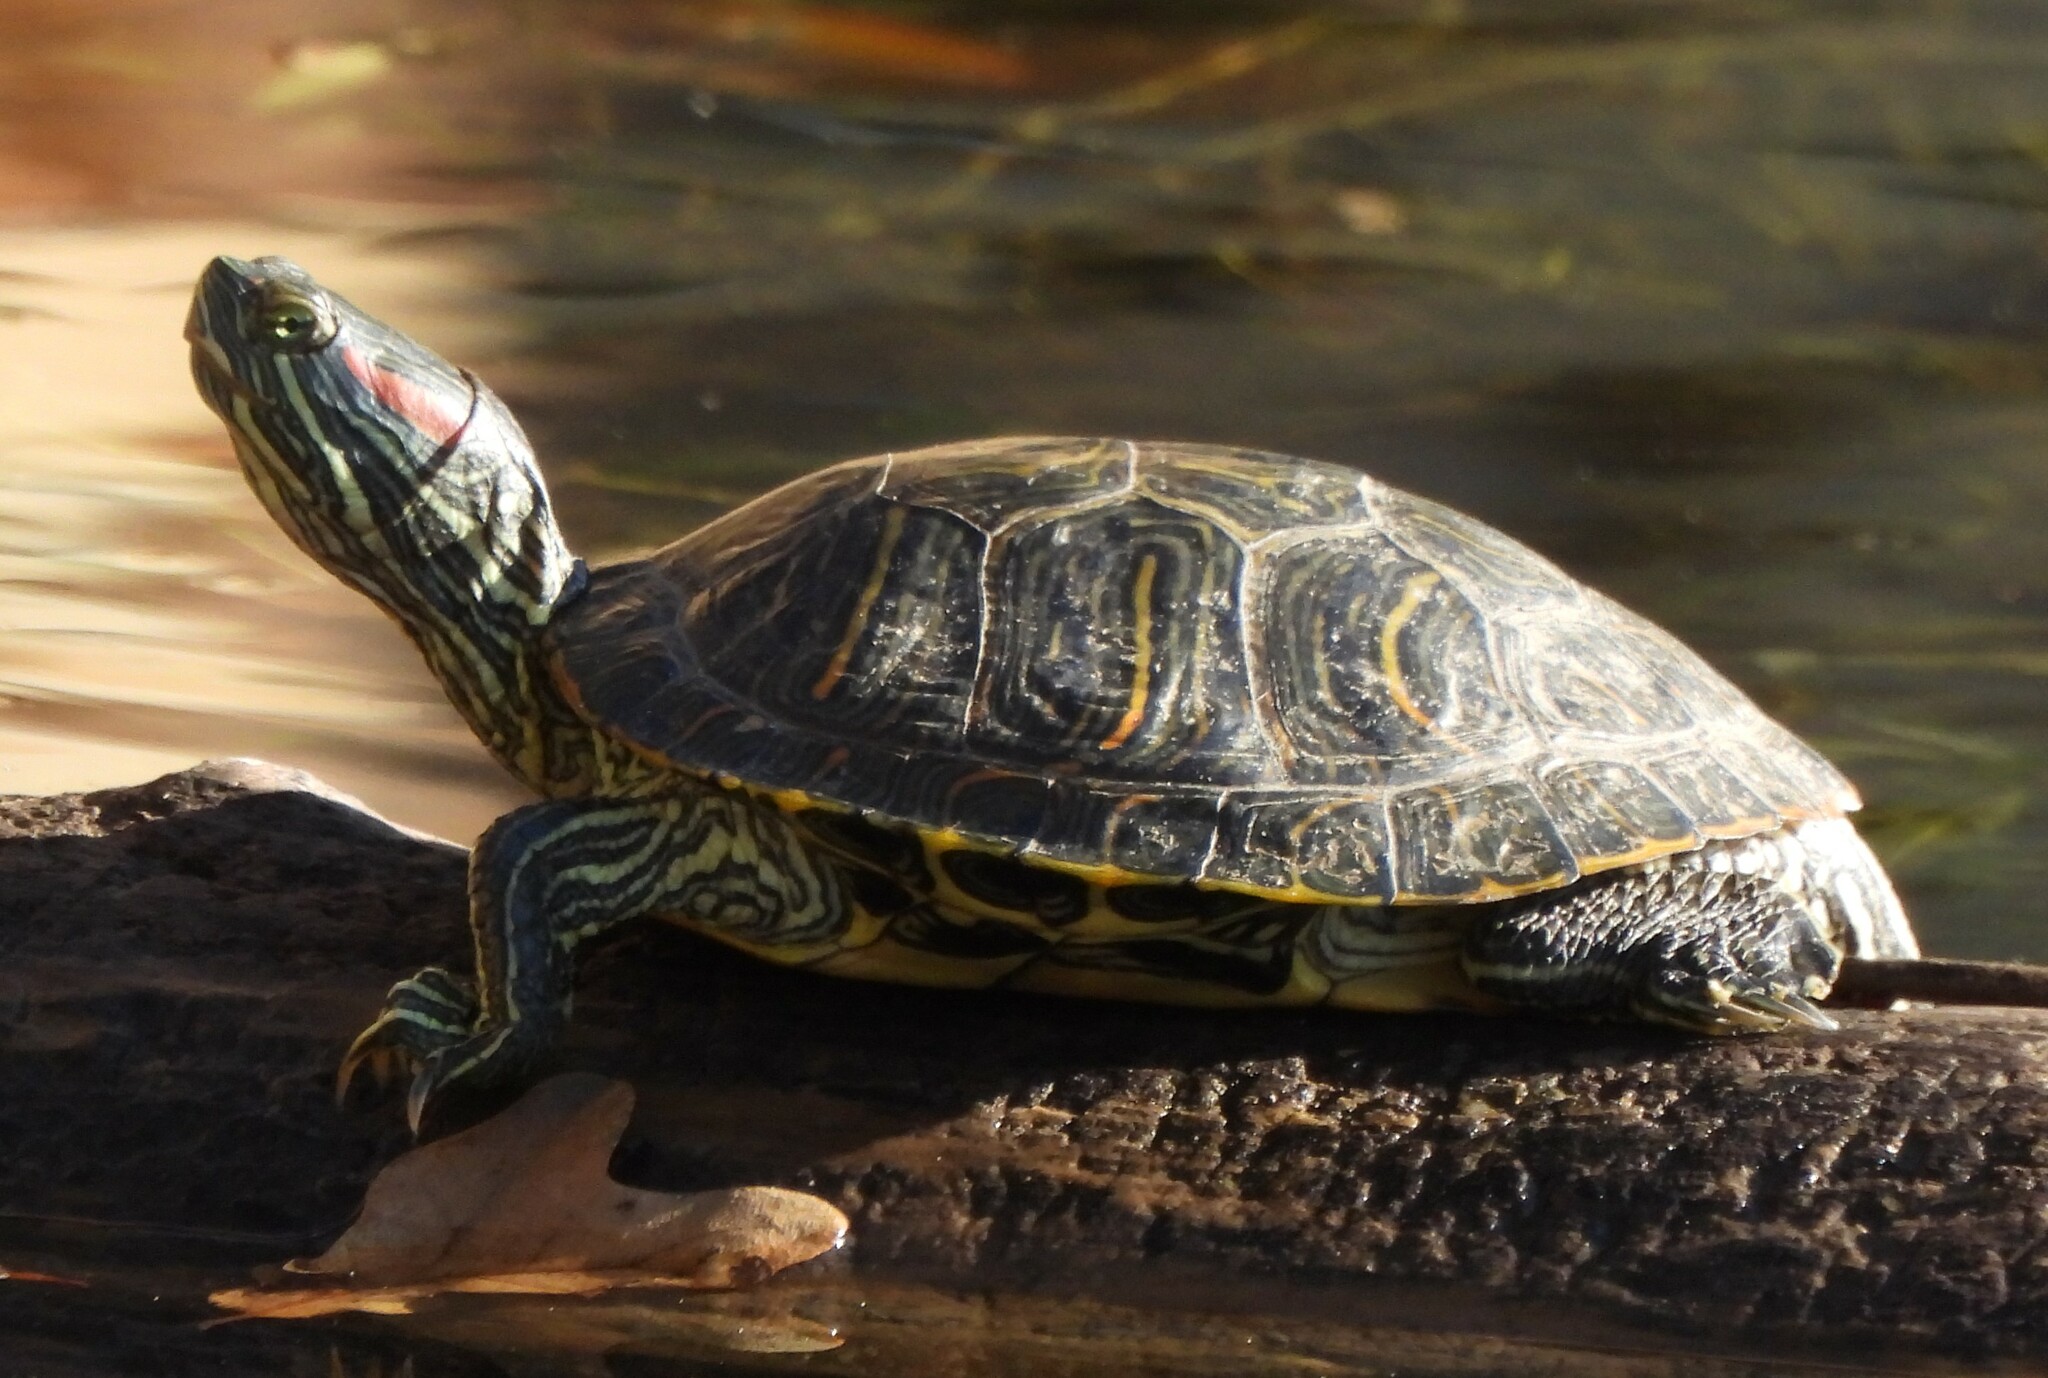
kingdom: Animalia
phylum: Chordata
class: Testudines
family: Emydidae
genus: Trachemys
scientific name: Trachemys scripta
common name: Slider
